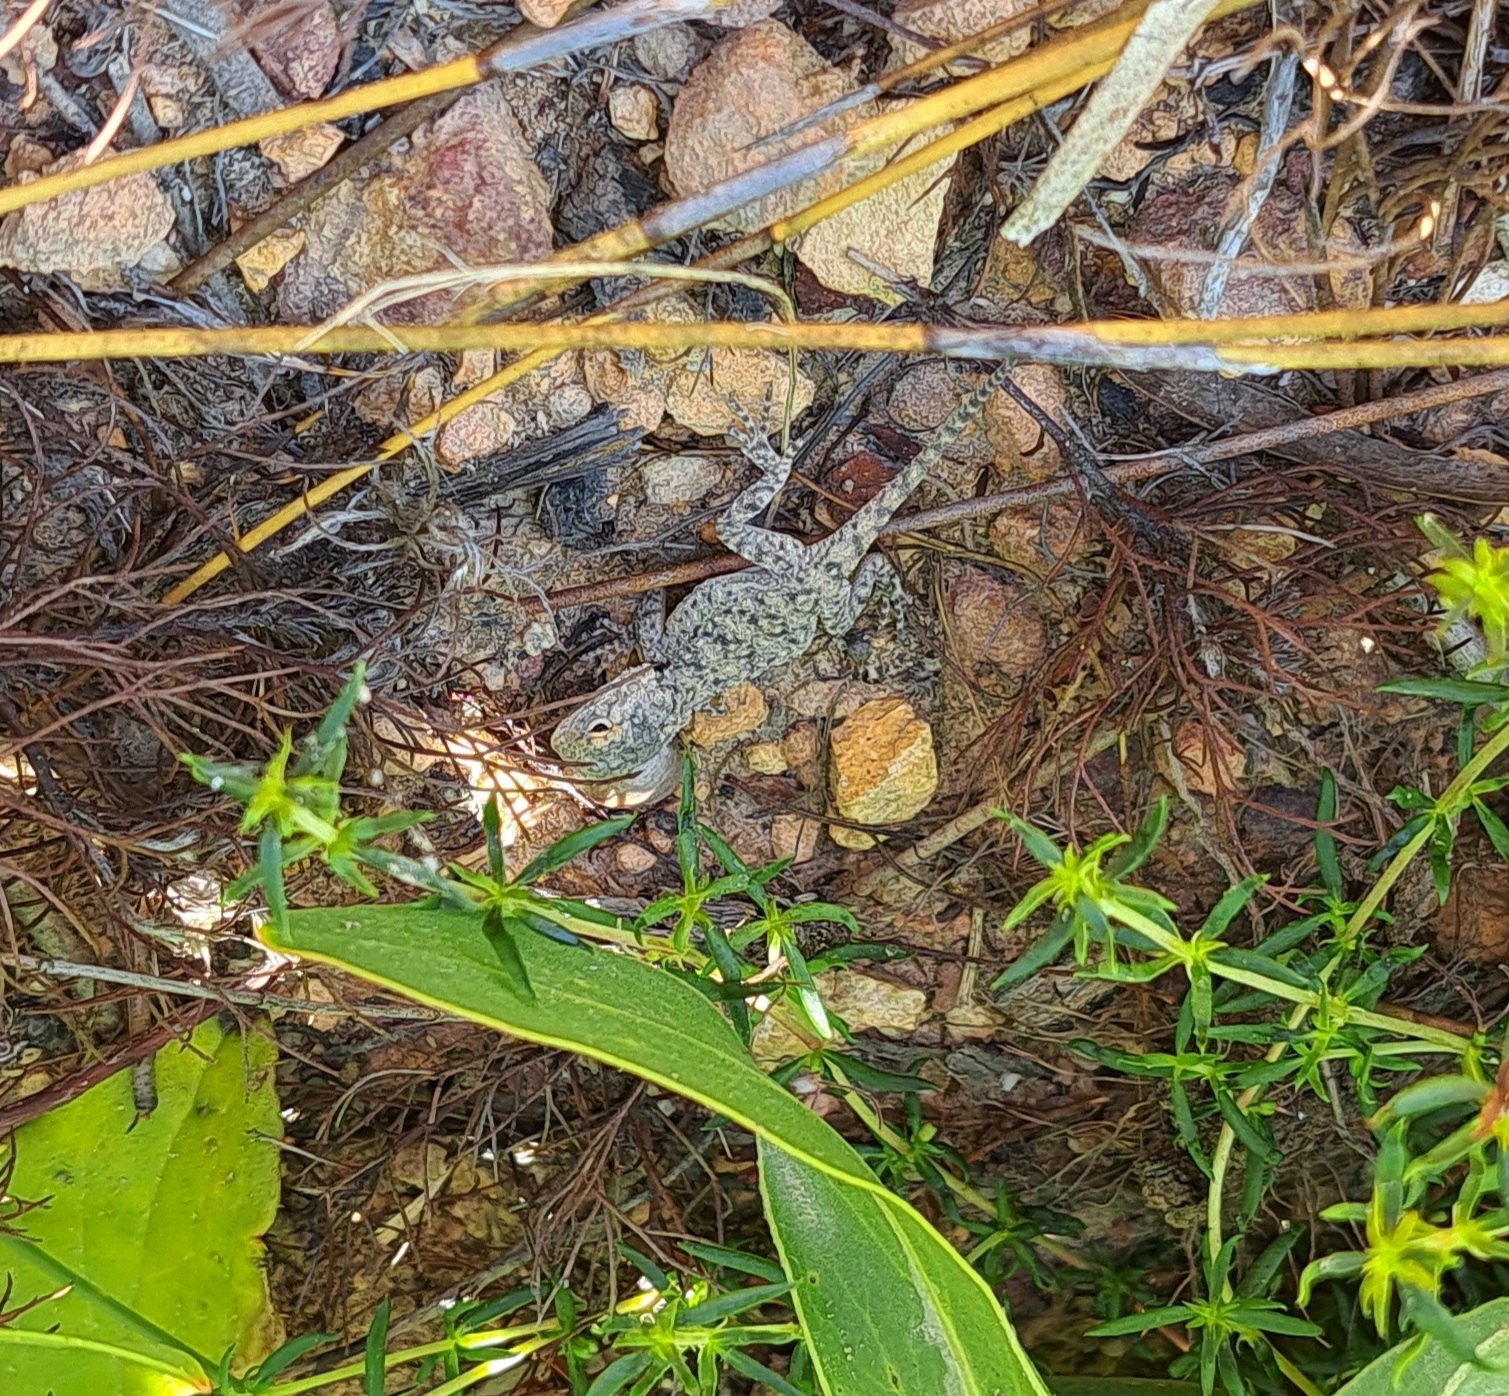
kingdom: Animalia
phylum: Chordata
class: Squamata
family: Agamidae
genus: Agama
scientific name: Agama atra
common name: Southern african rock agama
